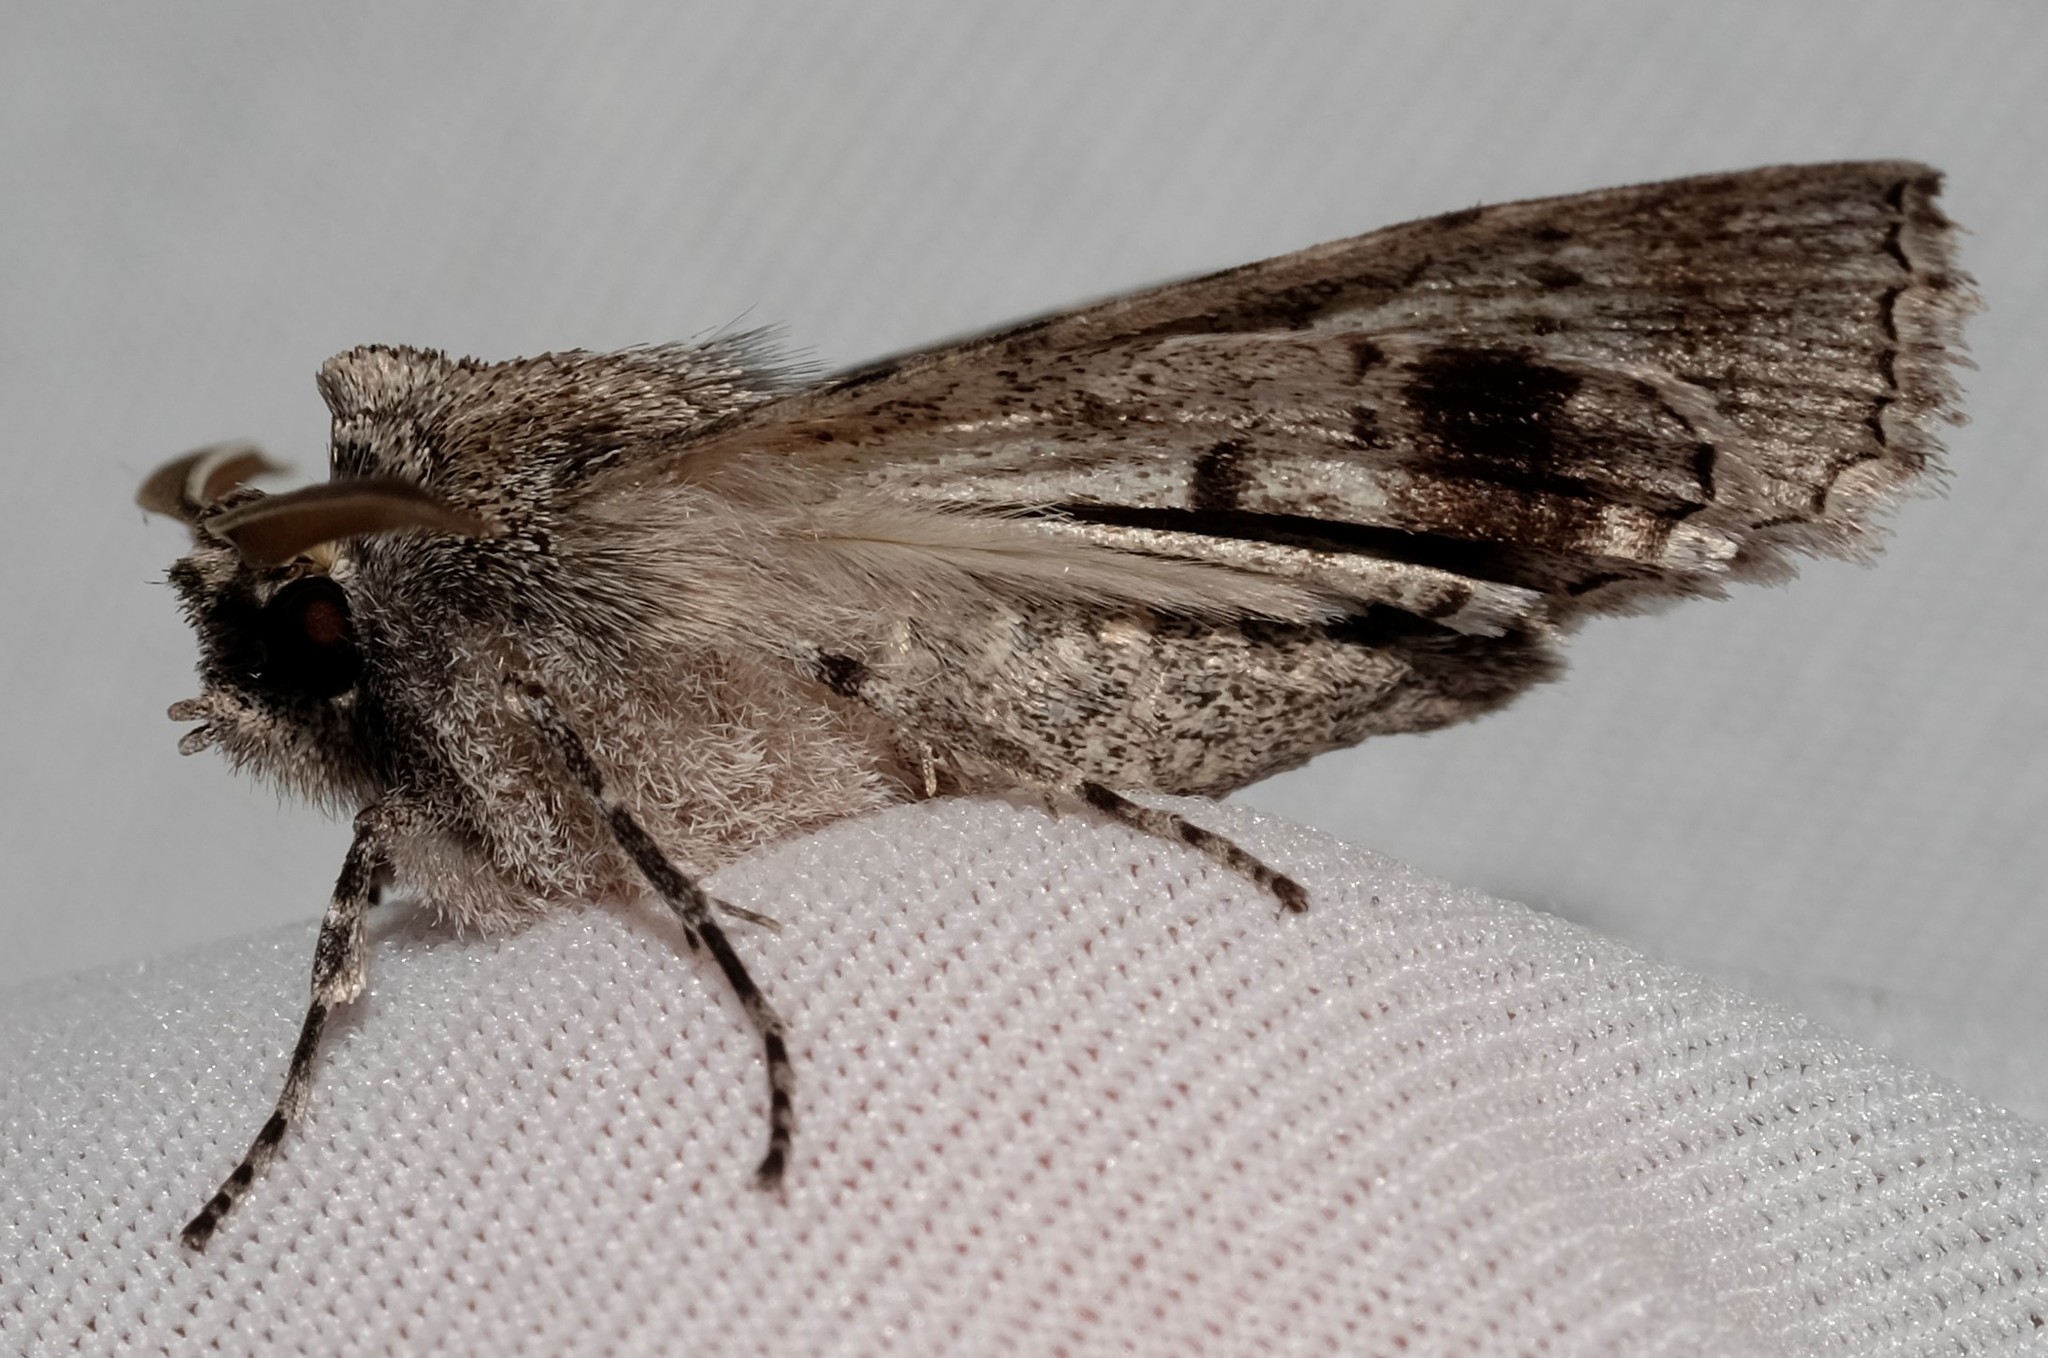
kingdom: Animalia
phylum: Arthropoda
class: Insecta
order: Lepidoptera
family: Geometridae
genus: Nisista
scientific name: Nisista galearia
